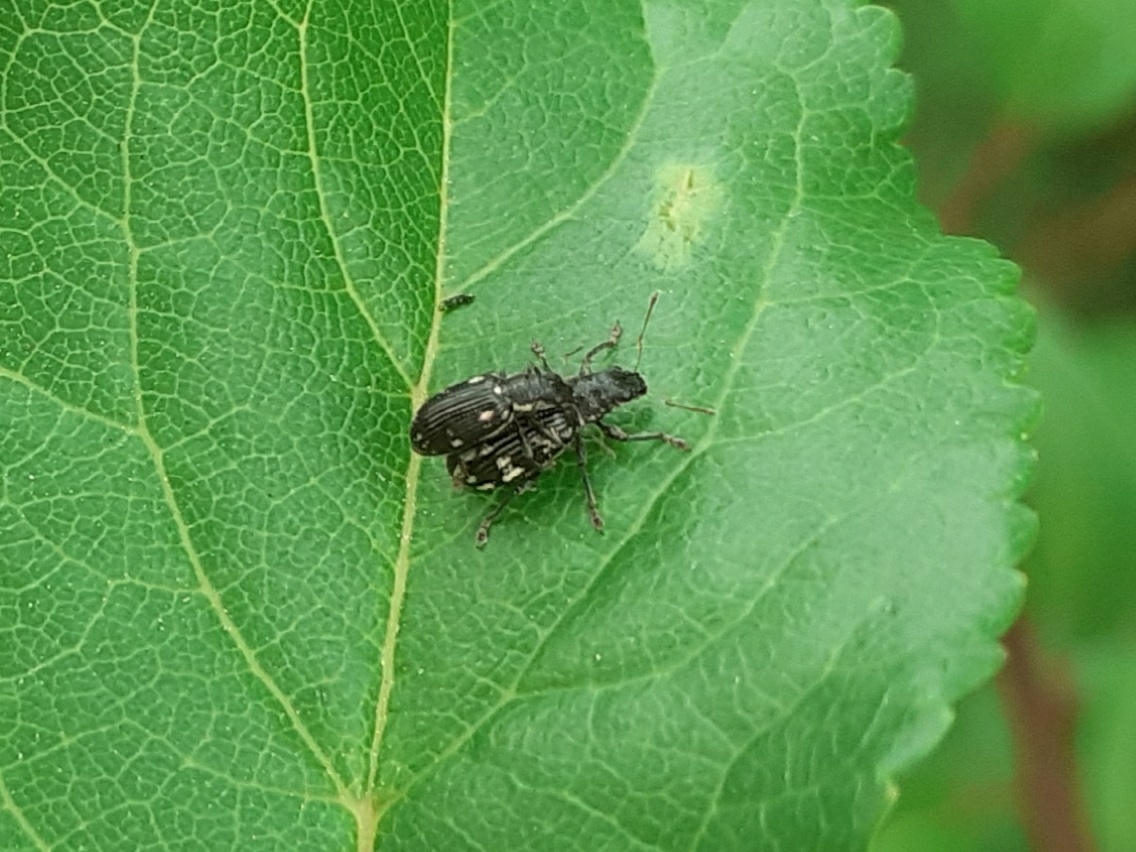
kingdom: Animalia
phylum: Arthropoda
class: Insecta
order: Coleoptera
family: Curculionidae
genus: Polydrusus
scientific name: Polydrusus picus
